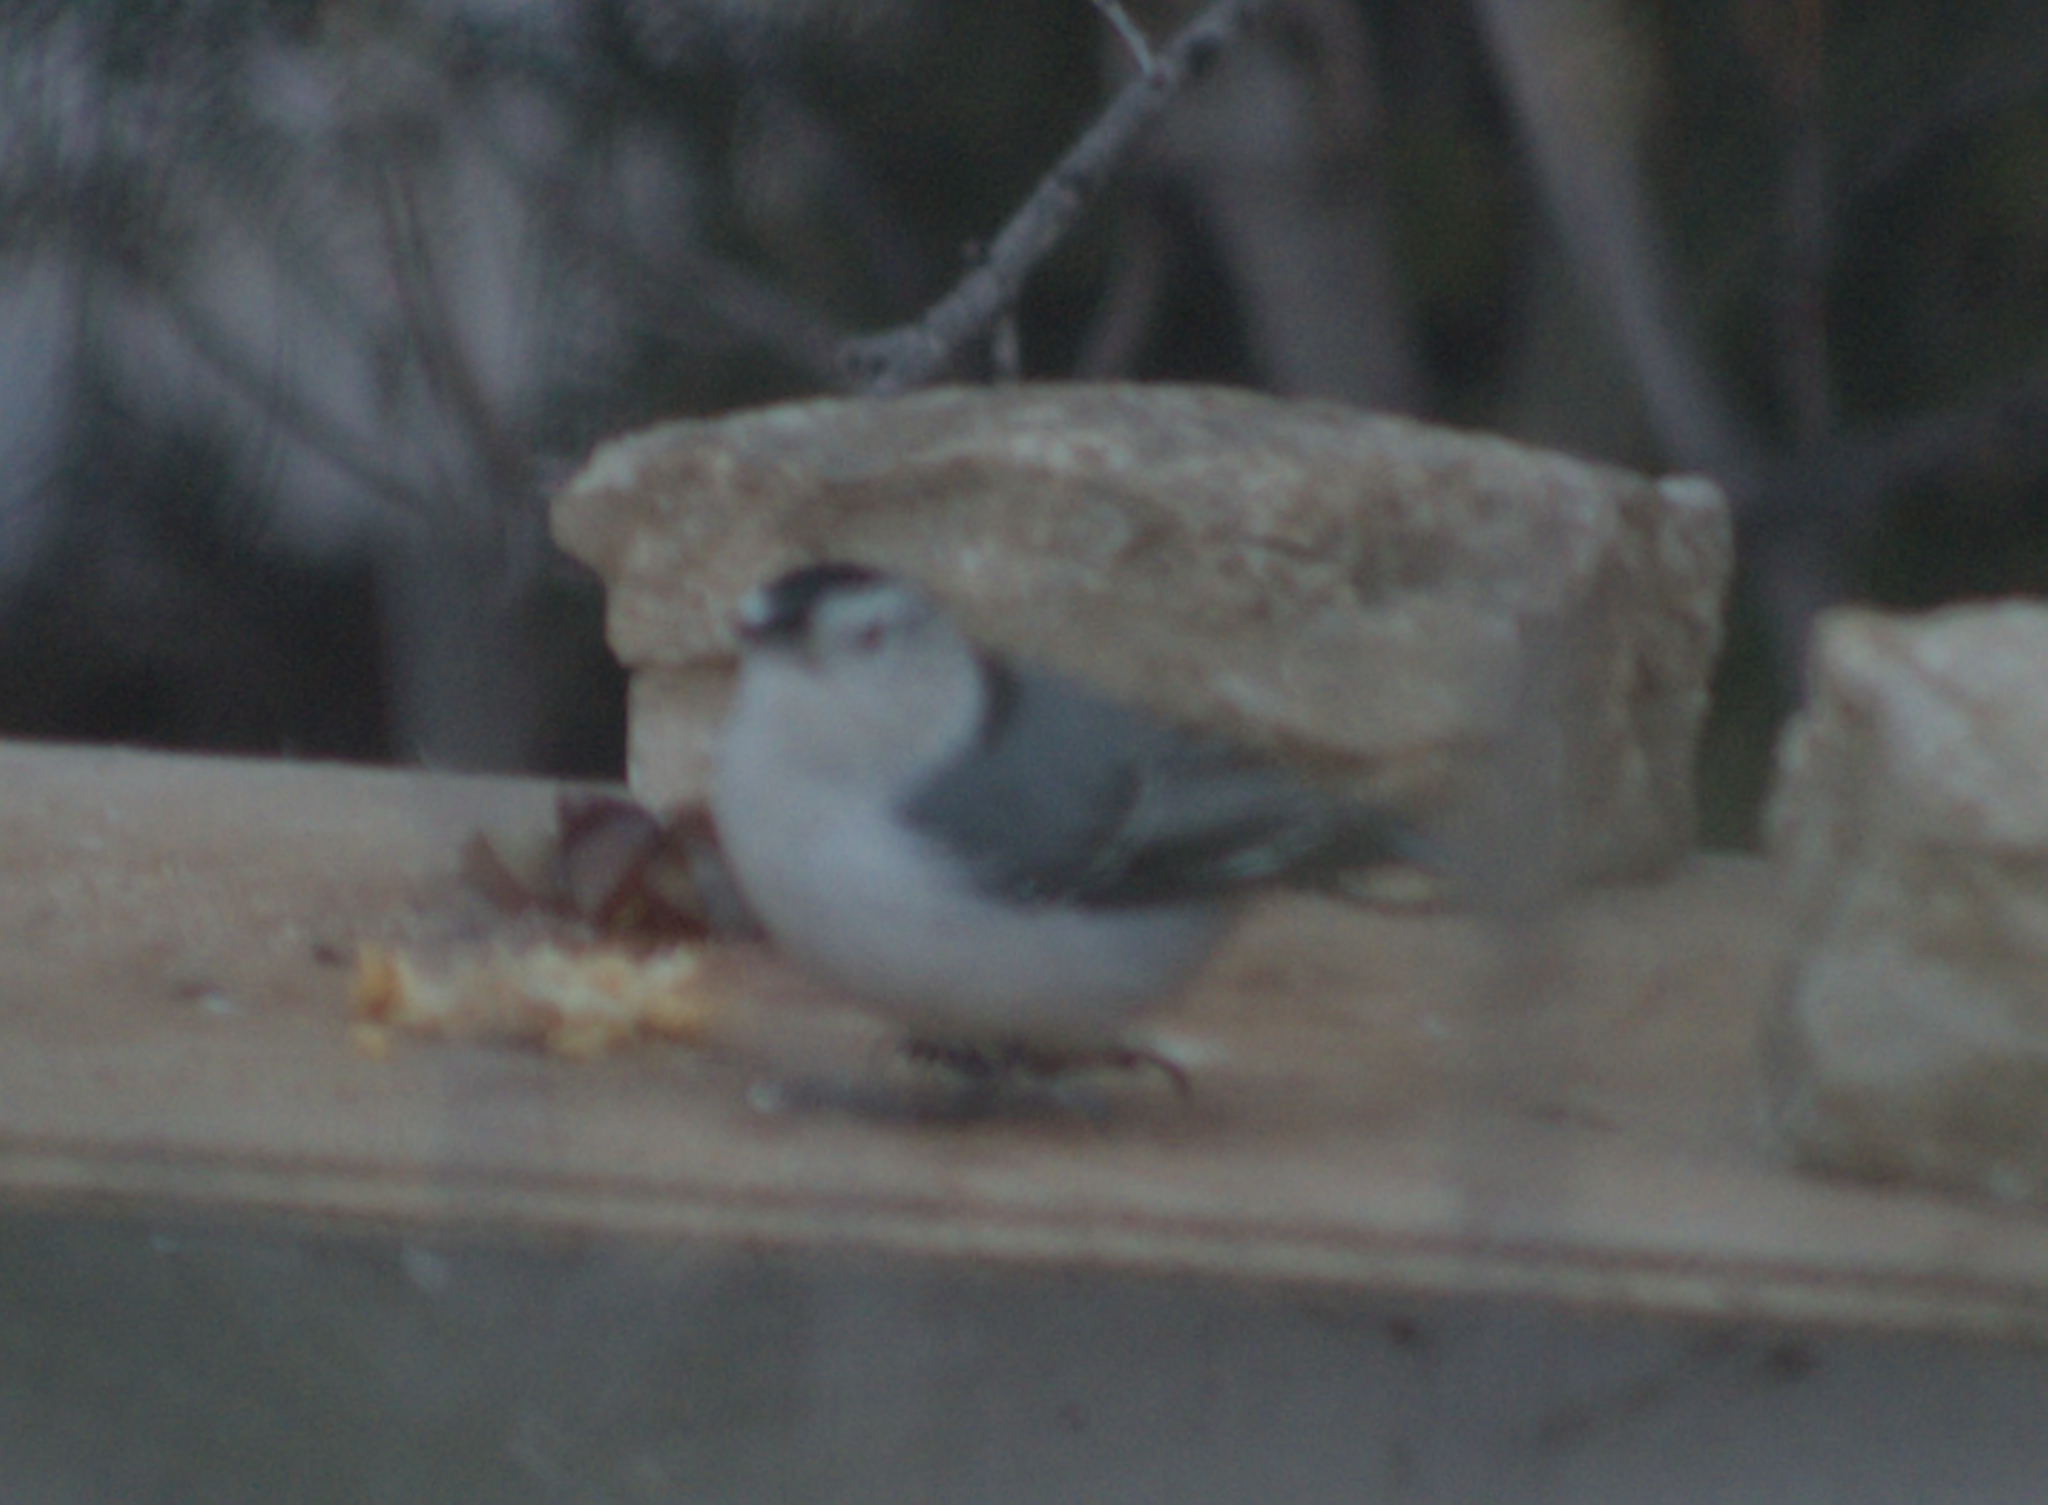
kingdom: Animalia
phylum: Chordata
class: Aves
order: Passeriformes
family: Sittidae
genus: Sitta
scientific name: Sitta carolinensis
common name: White-breasted nuthatch
